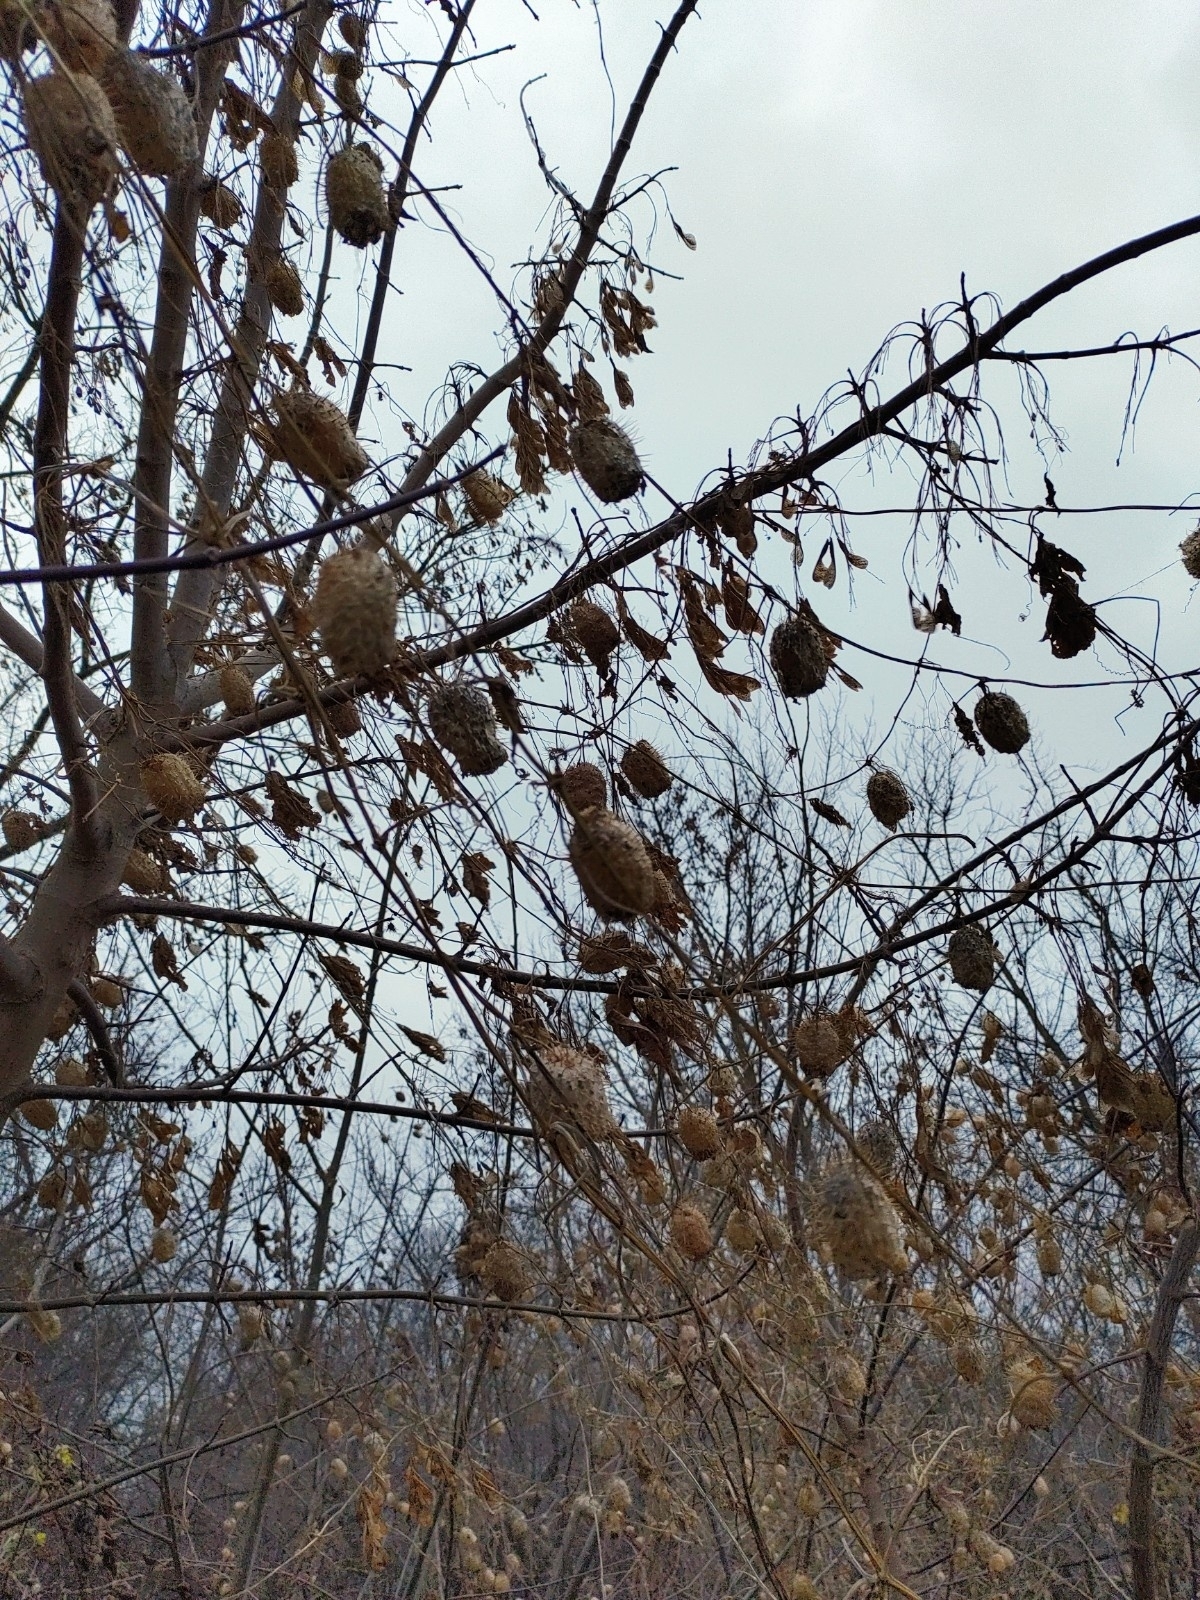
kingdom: Plantae
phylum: Tracheophyta
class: Magnoliopsida
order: Cucurbitales
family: Cucurbitaceae
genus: Echinocystis
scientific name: Echinocystis lobata
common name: Wild cucumber
